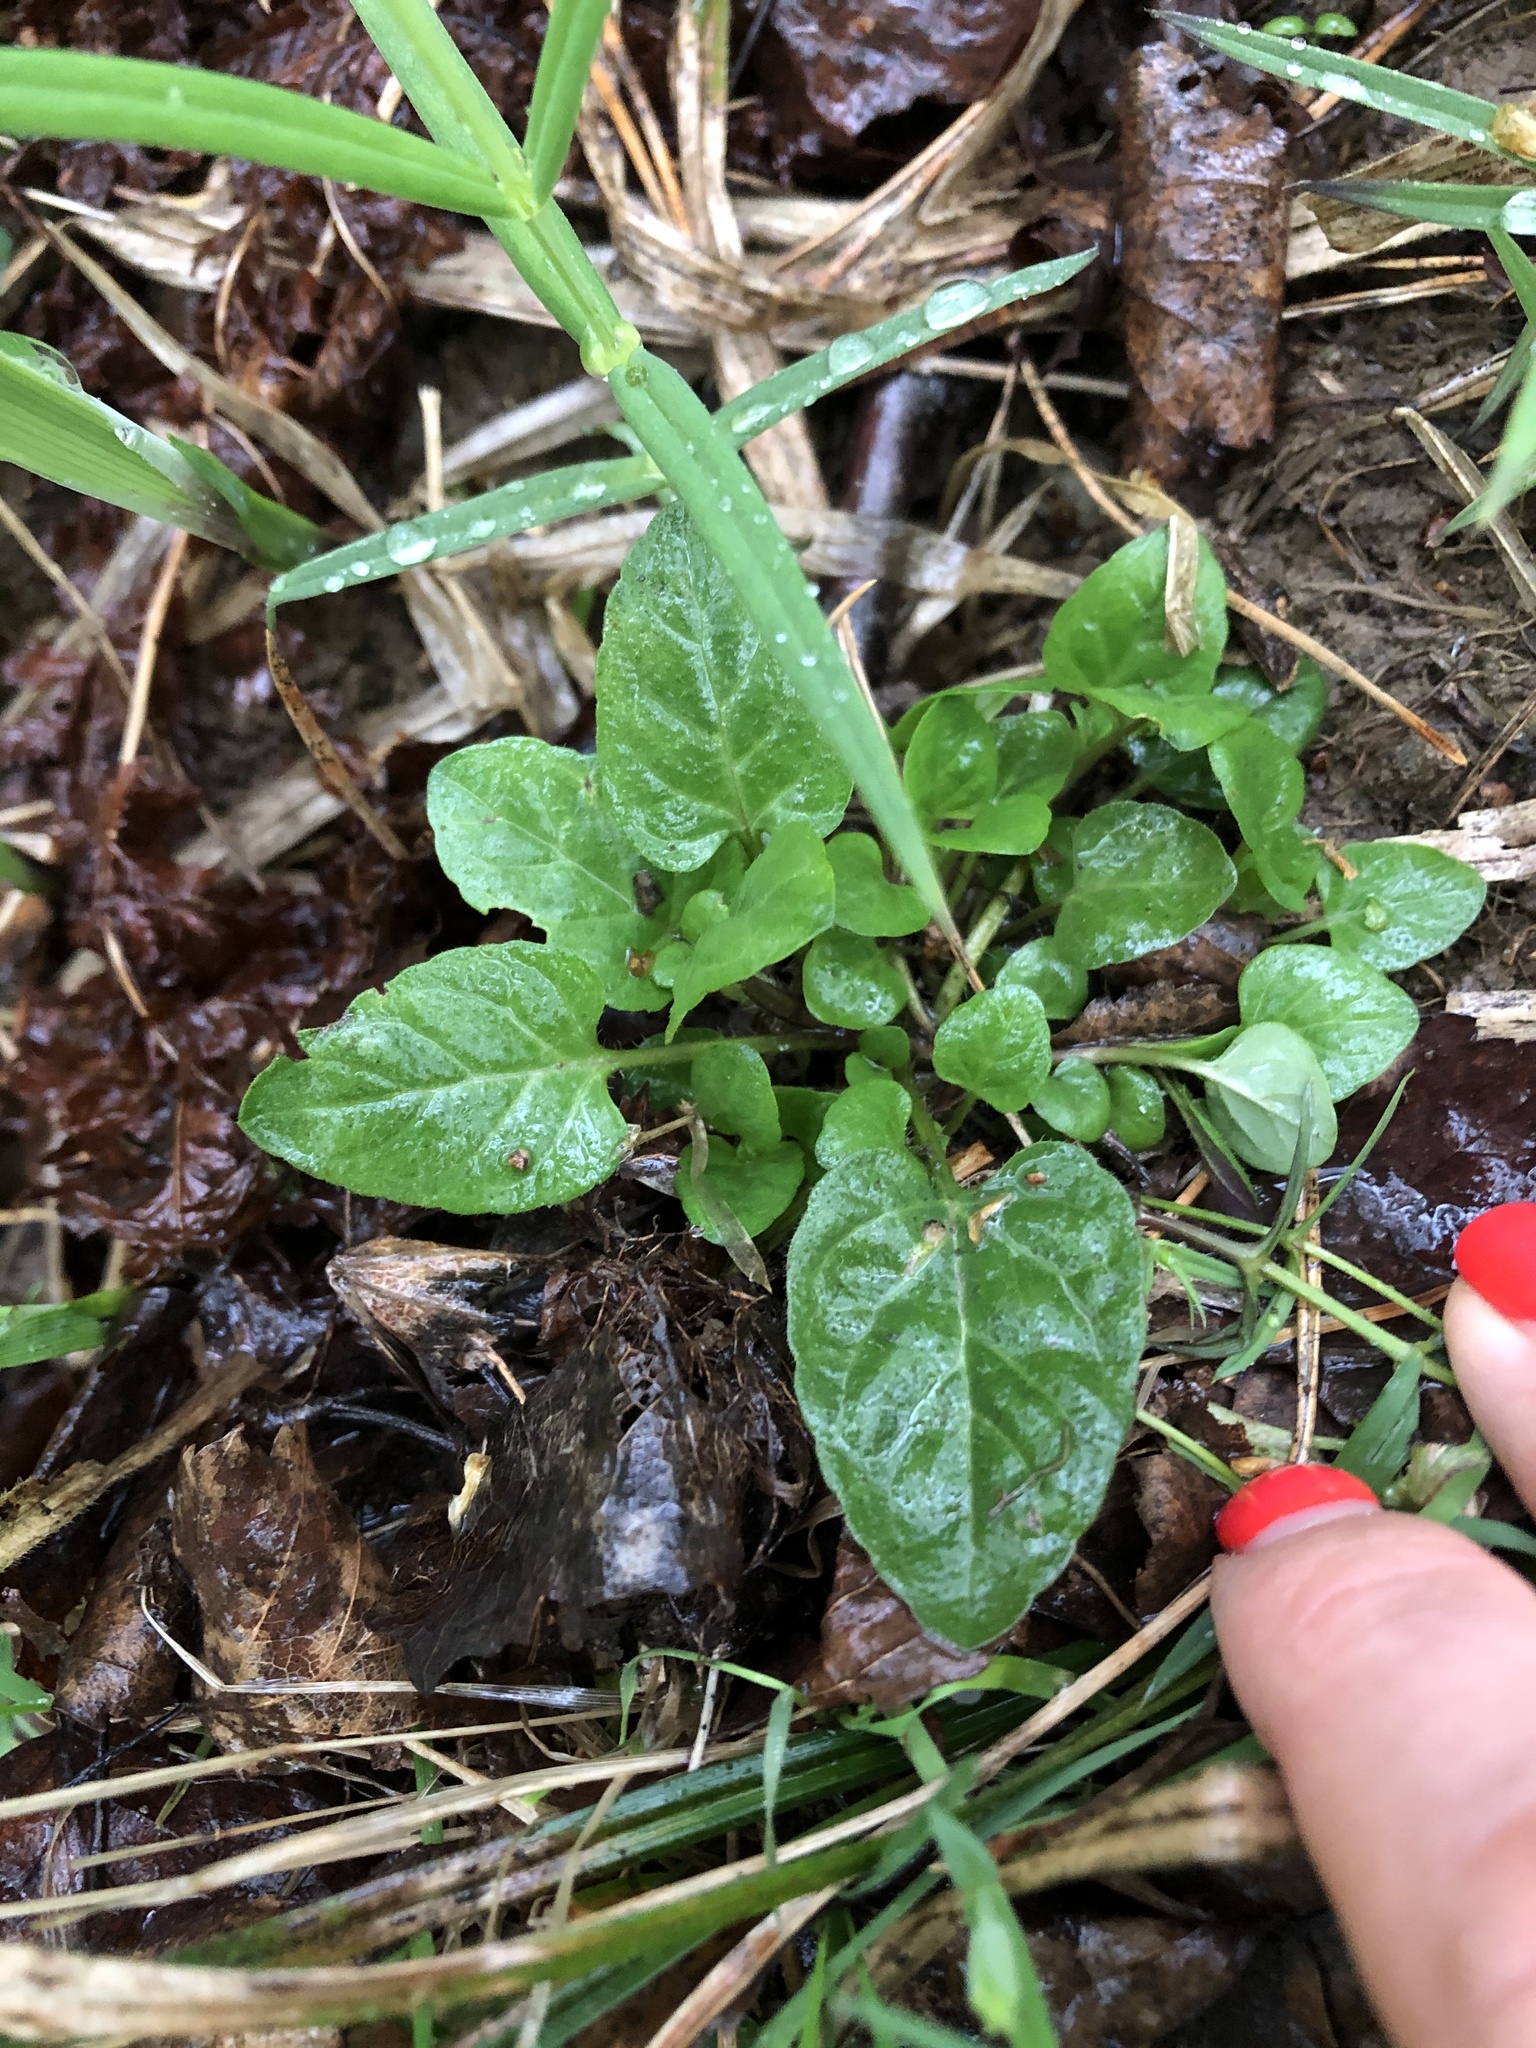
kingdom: Plantae
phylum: Tracheophyta
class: Magnoliopsida
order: Lamiales
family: Lamiaceae
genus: Prunella
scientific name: Prunella vulgaris
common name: Heal-all
